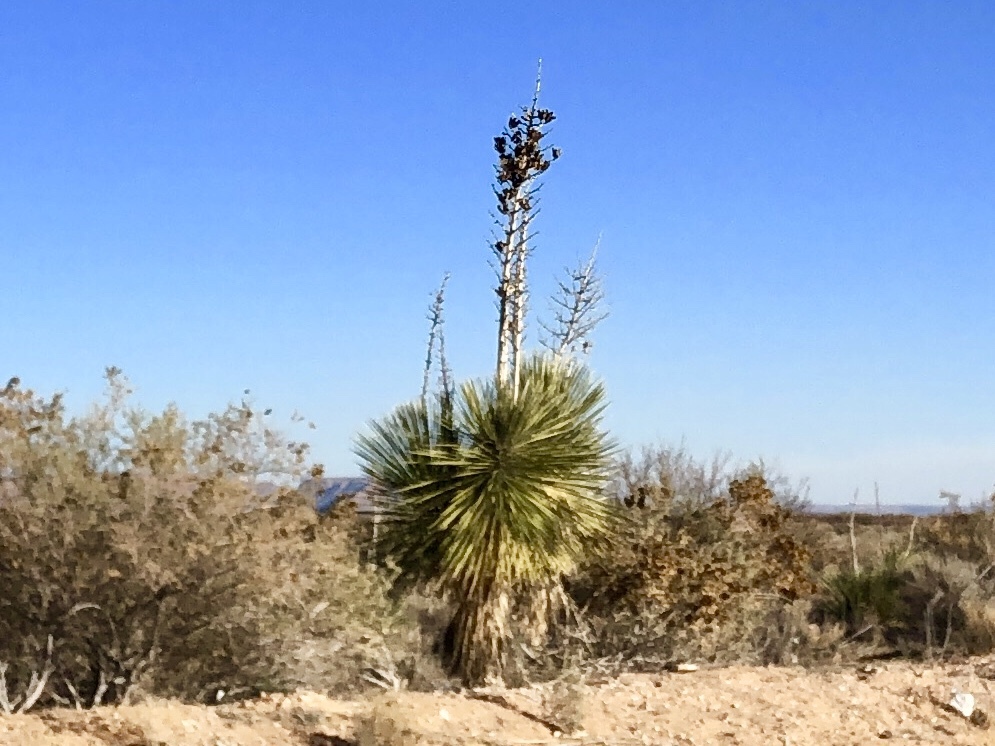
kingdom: Plantae
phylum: Tracheophyta
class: Liliopsida
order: Asparagales
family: Asparagaceae
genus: Yucca
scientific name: Yucca elata
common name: Palmella
